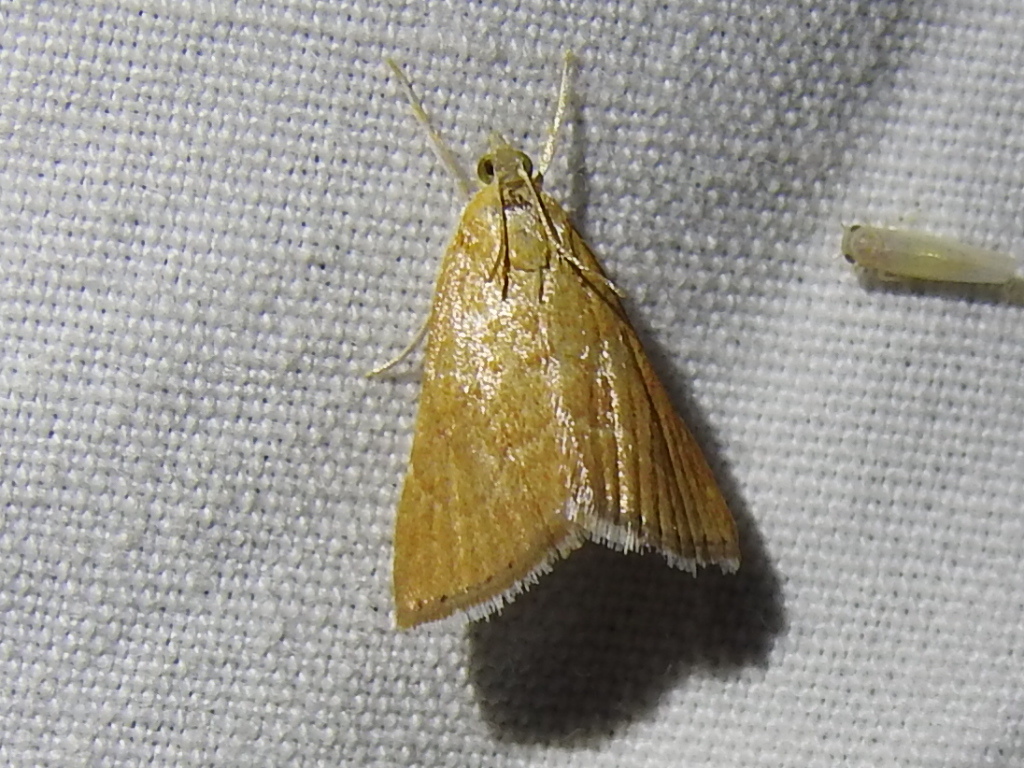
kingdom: Animalia
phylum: Arthropoda
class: Insecta
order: Lepidoptera
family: Crambidae
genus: Glaphyria
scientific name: Glaphyria invisalis
